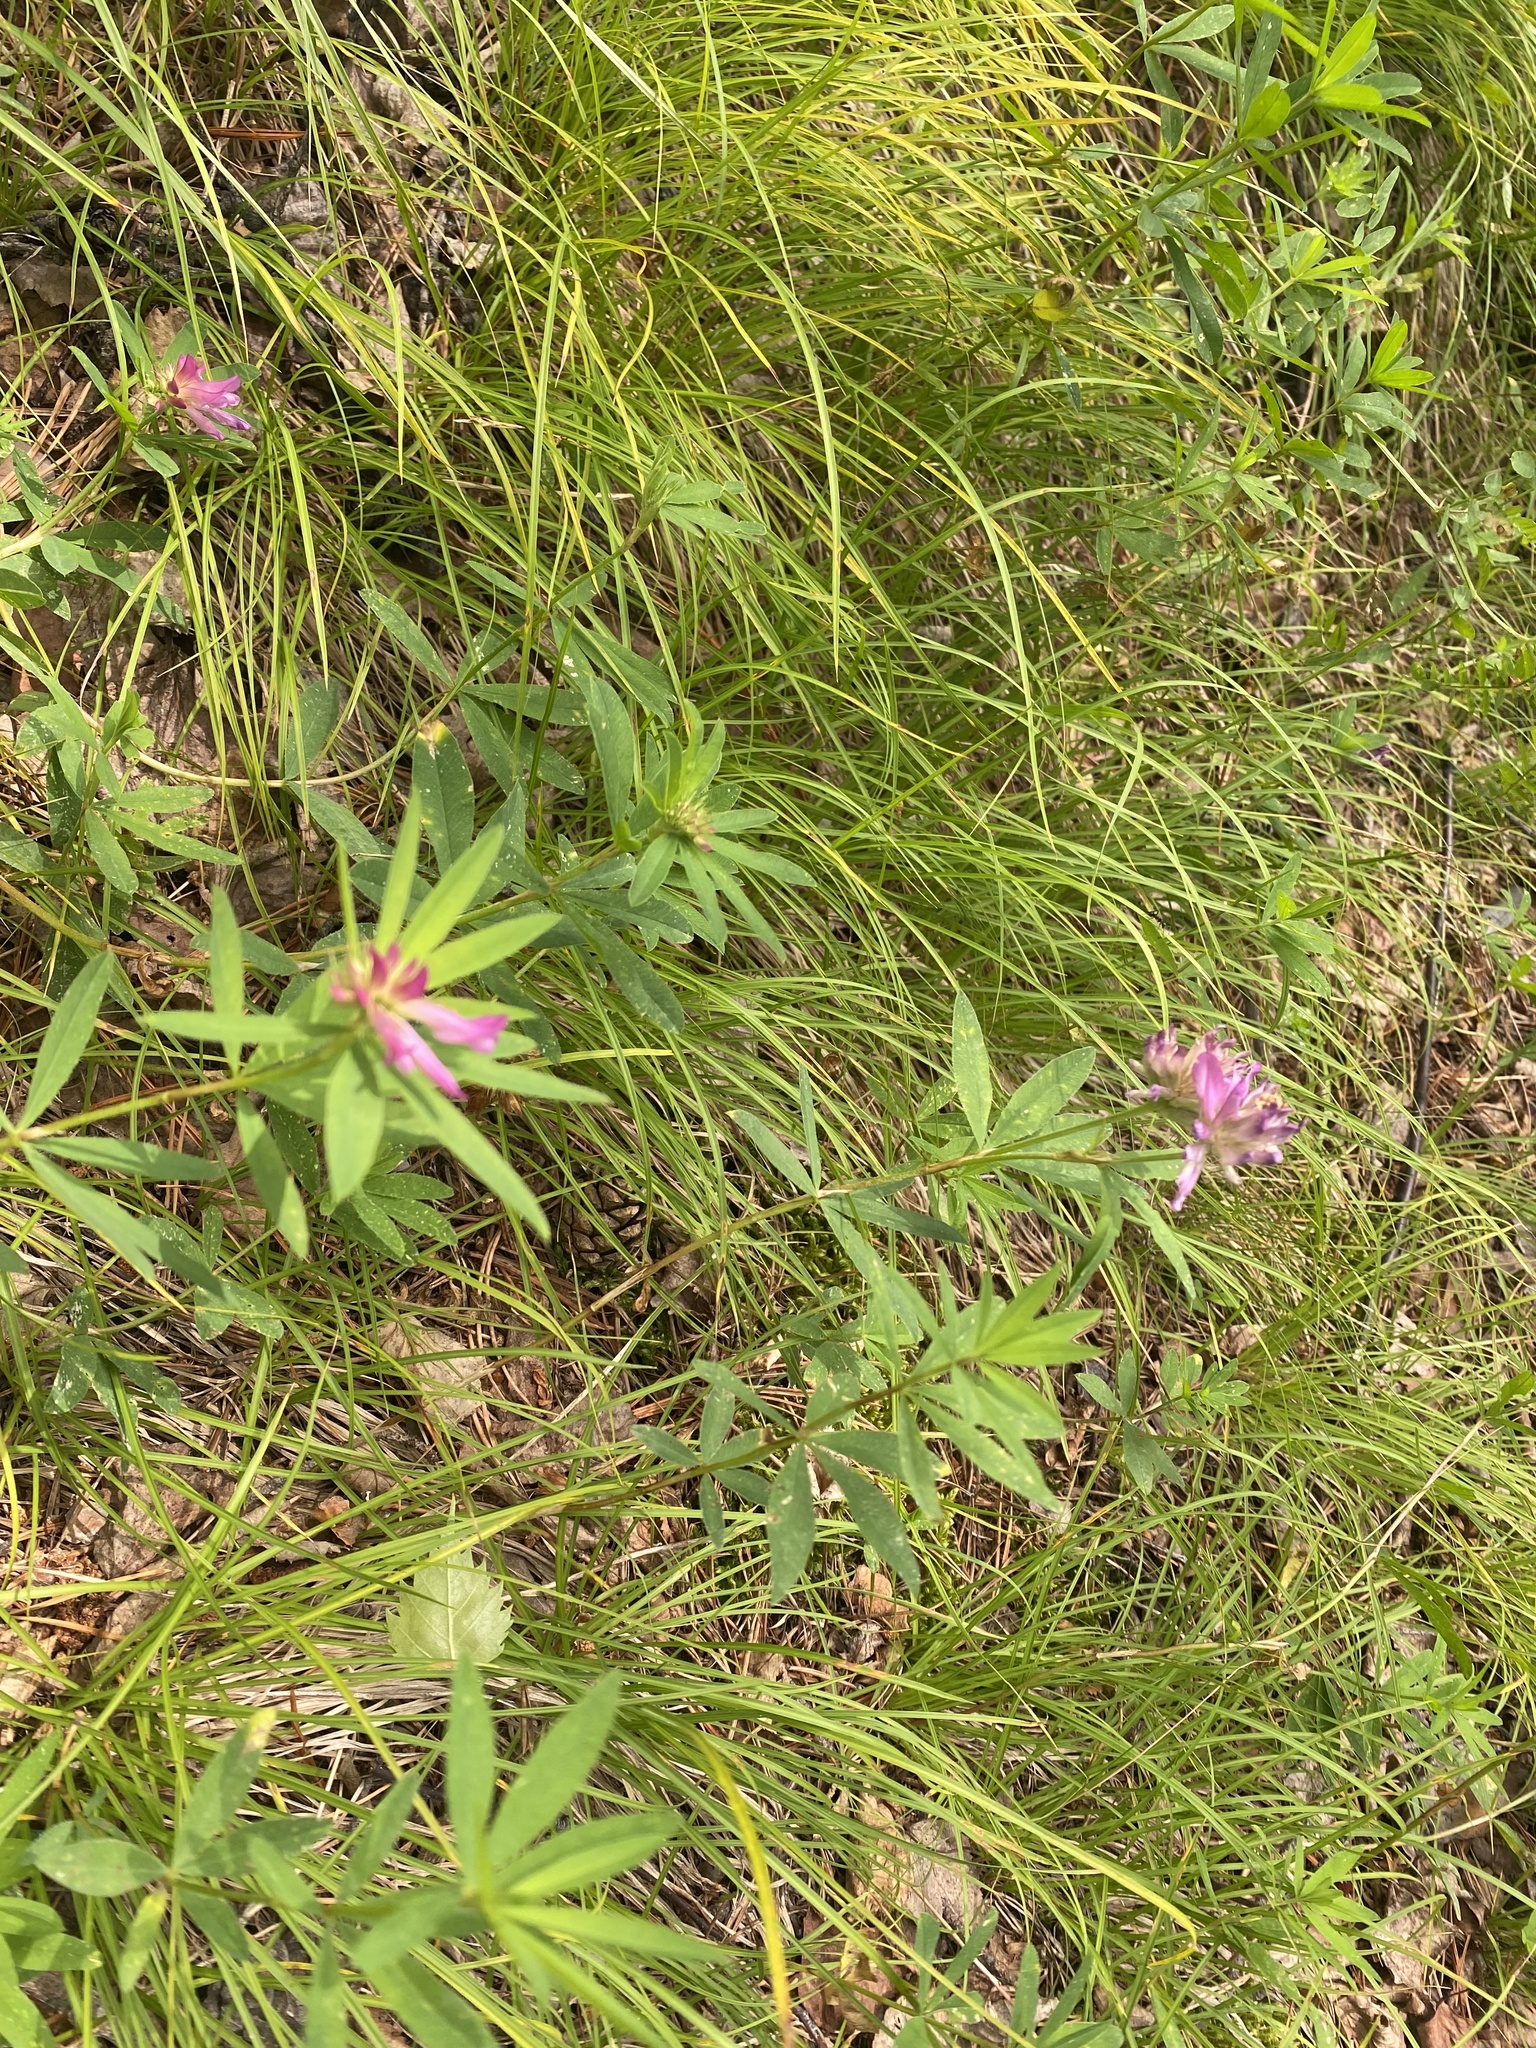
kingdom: Plantae
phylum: Tracheophyta
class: Magnoliopsida
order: Fabales
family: Fabaceae
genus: Trifolium
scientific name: Trifolium lupinaster
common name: Lupine clover
